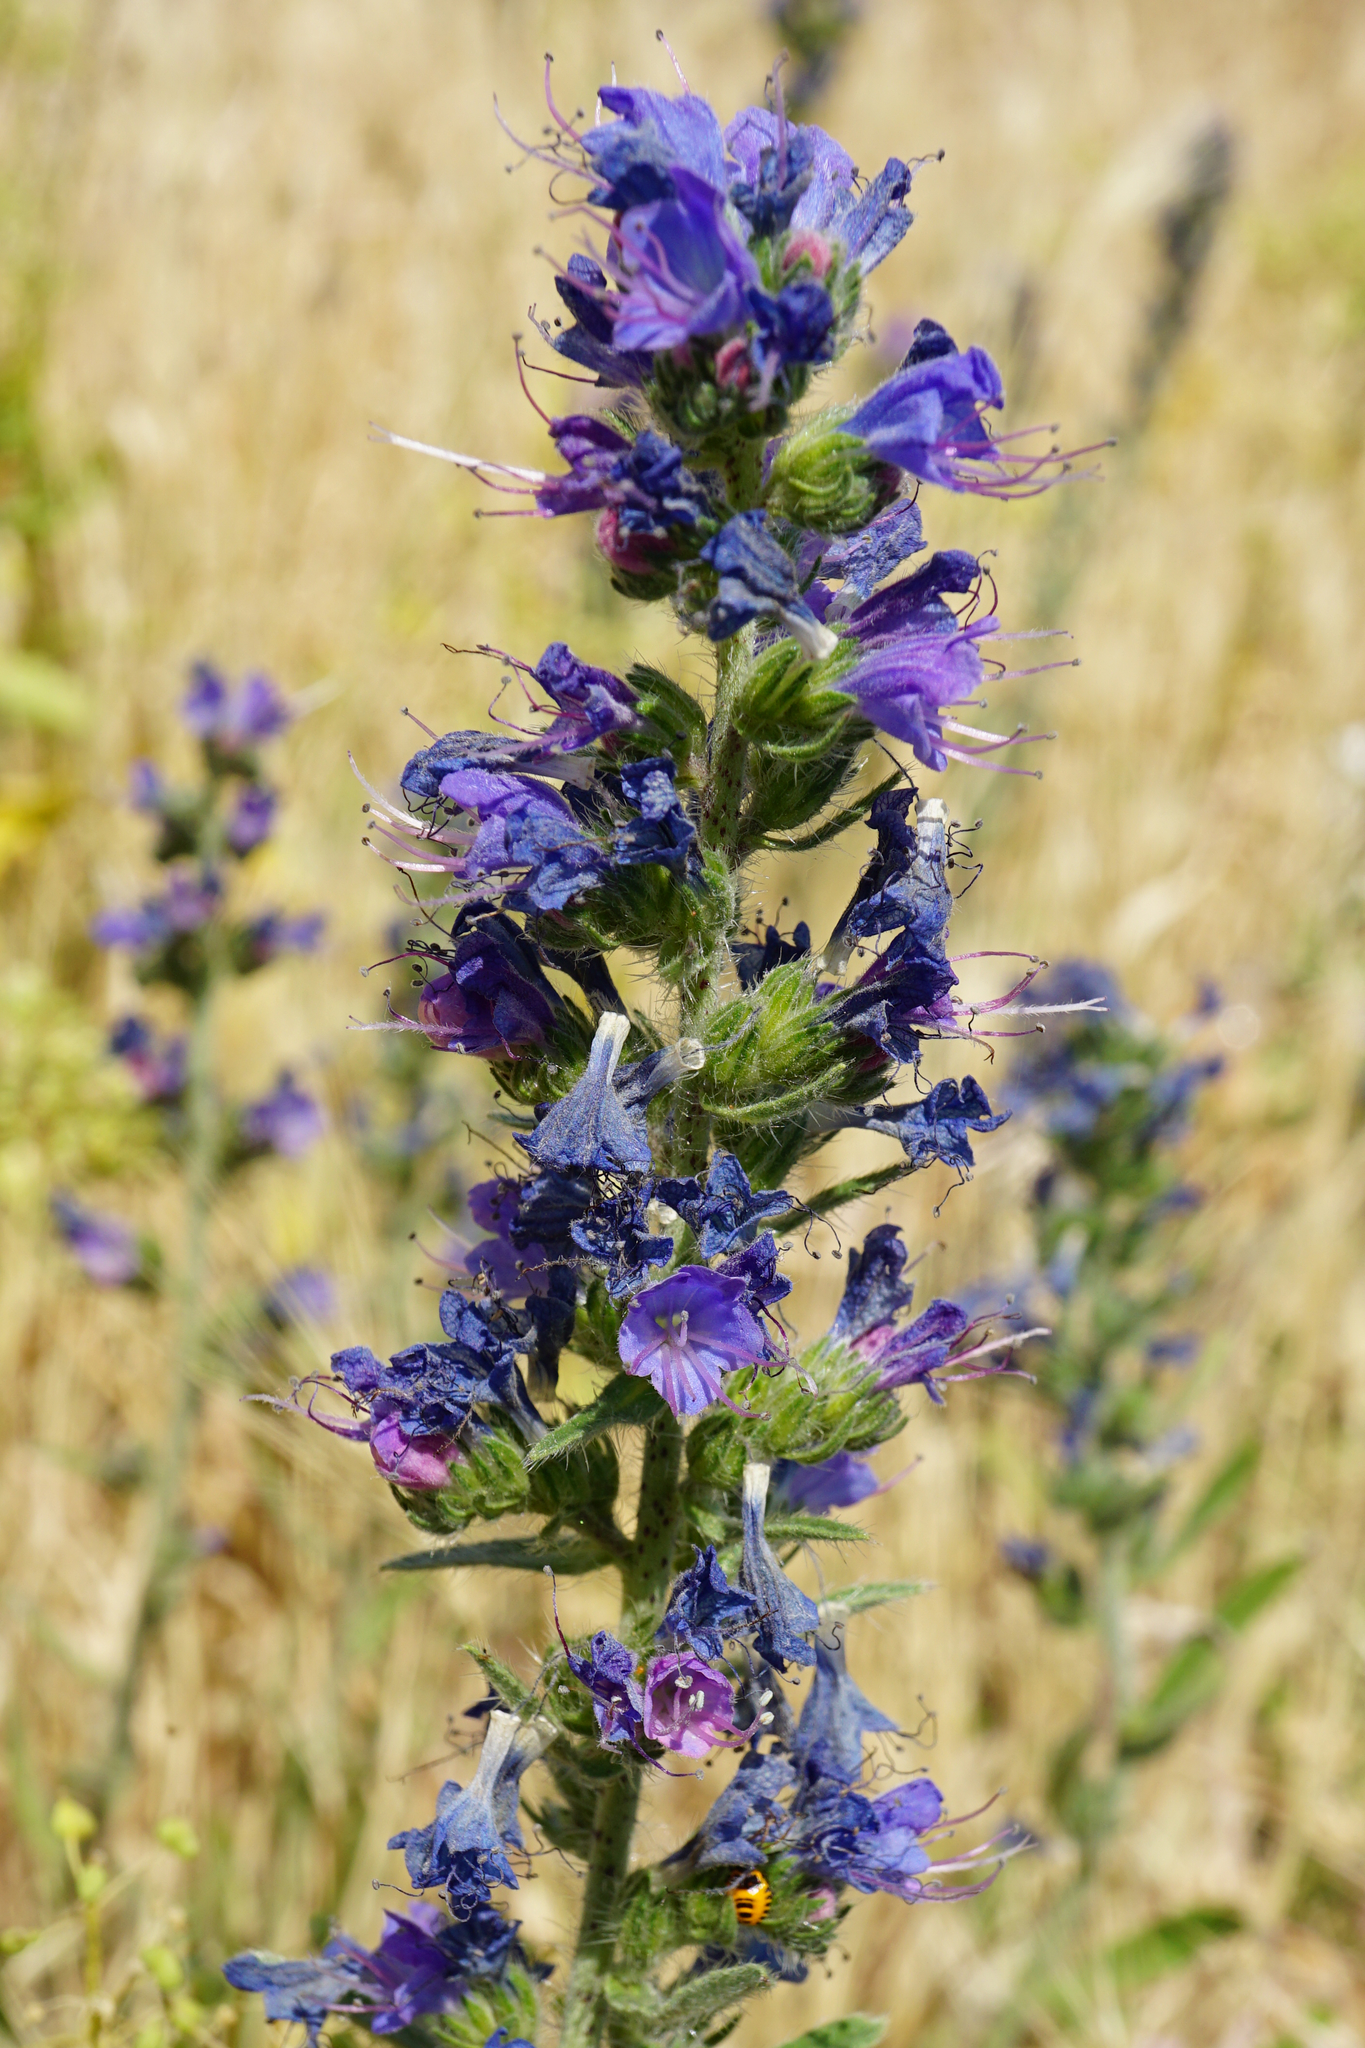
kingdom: Plantae
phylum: Tracheophyta
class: Magnoliopsida
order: Boraginales
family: Boraginaceae
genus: Echium
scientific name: Echium vulgare
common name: Common viper's bugloss
